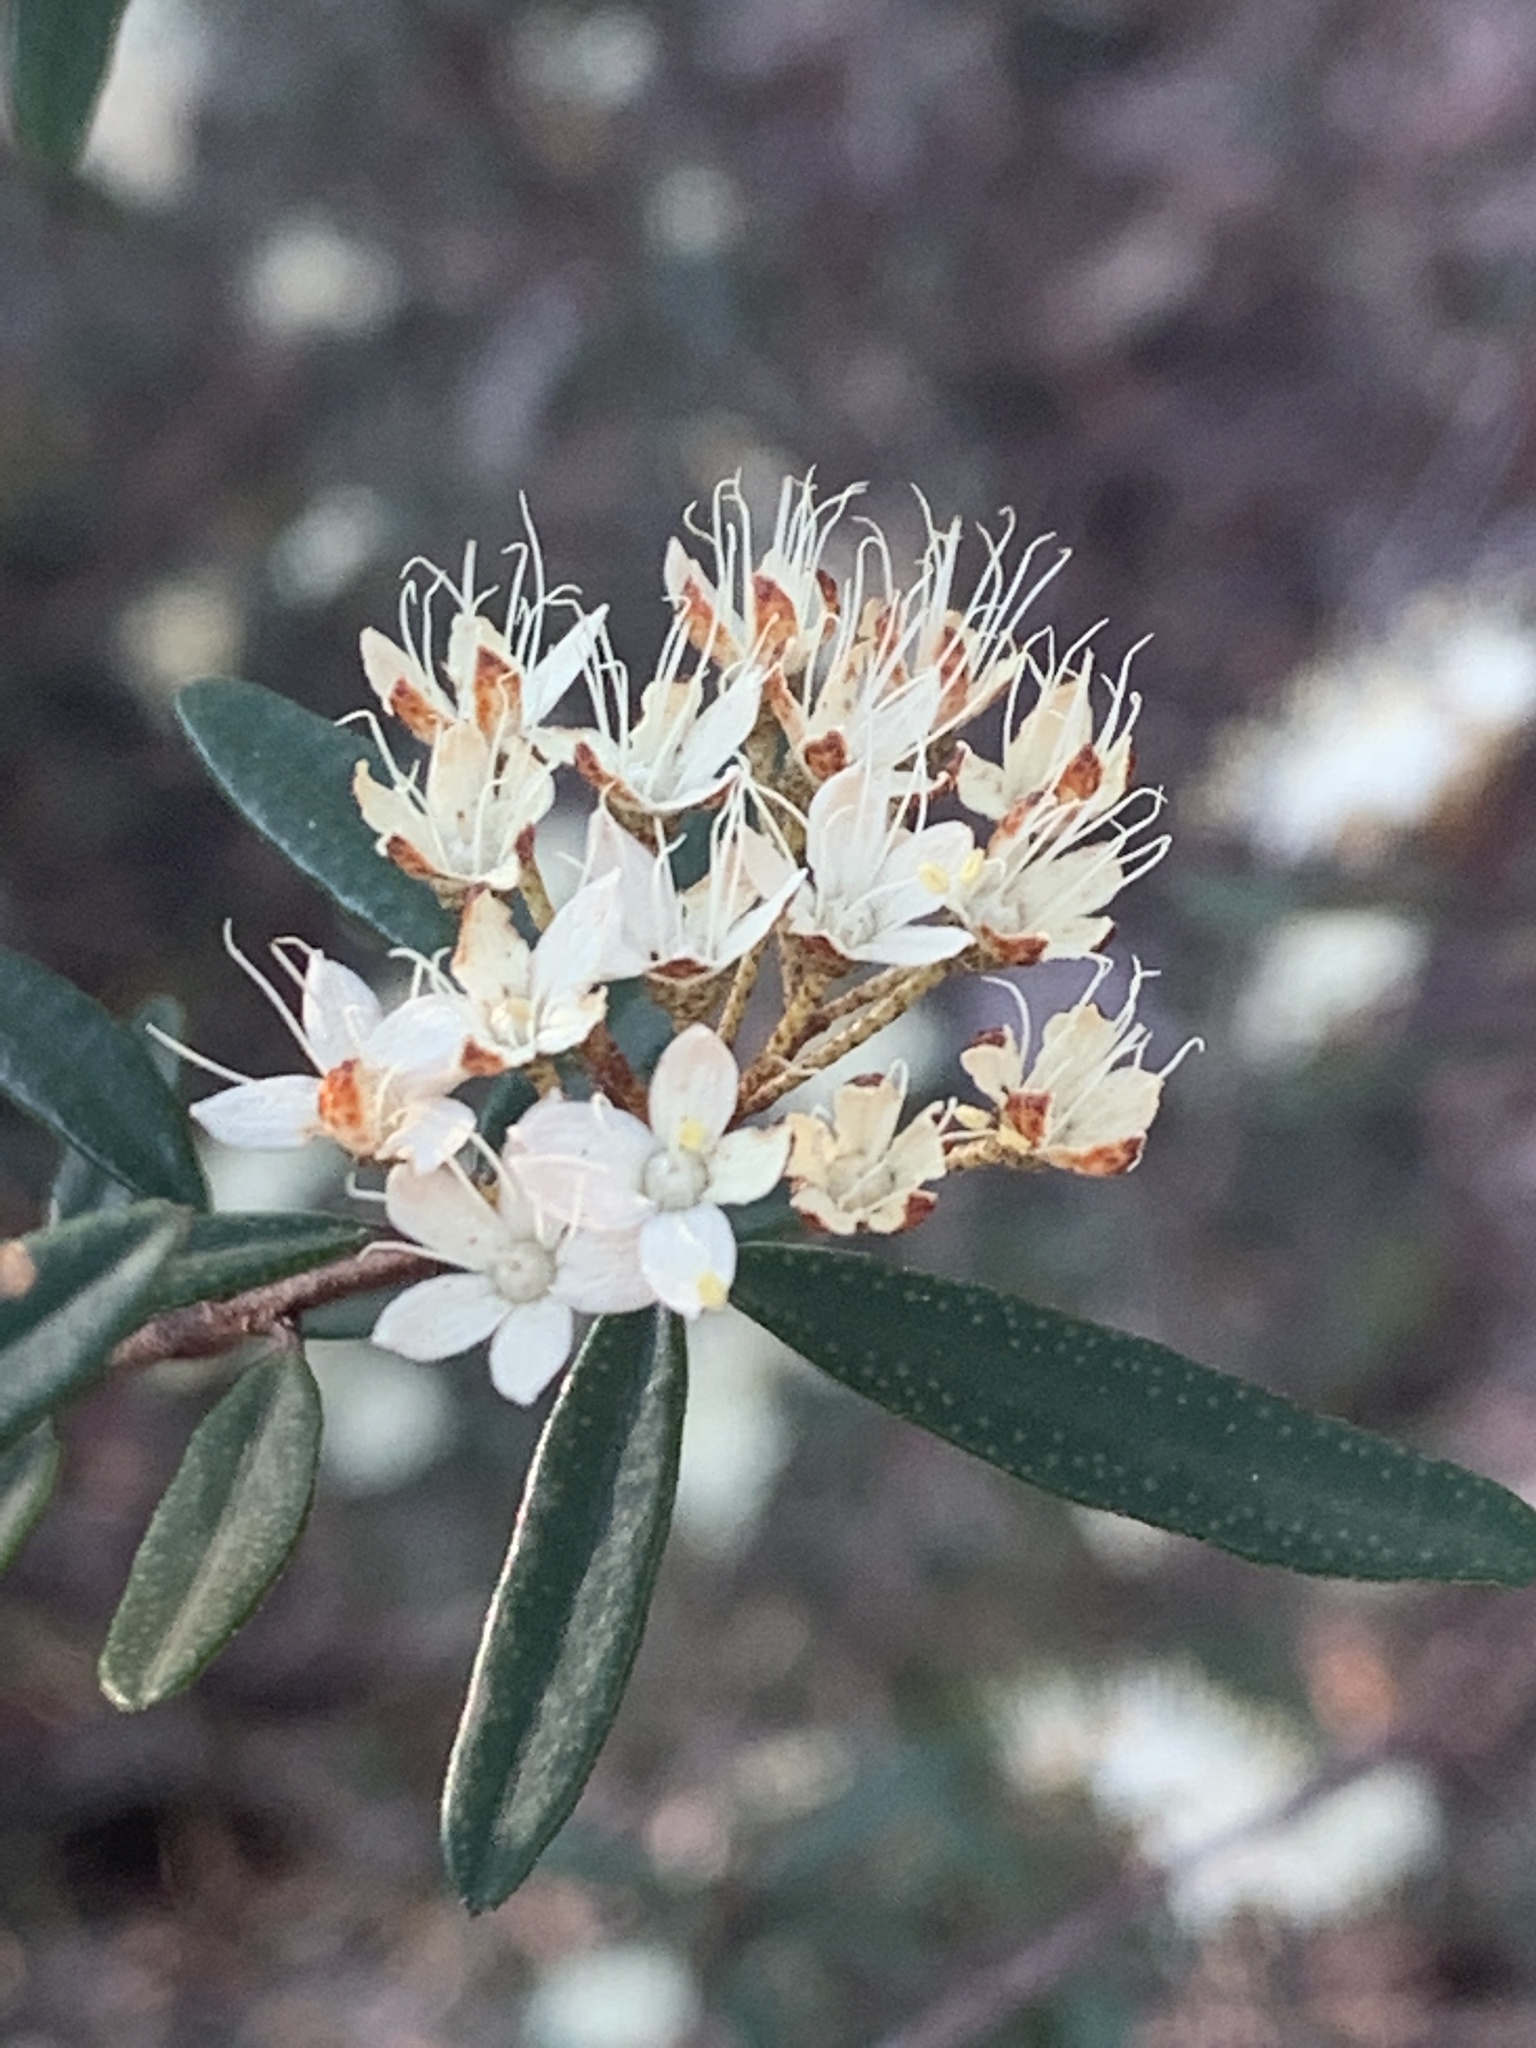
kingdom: Plantae
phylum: Tracheophyta
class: Magnoliopsida
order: Sapindales
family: Rutaceae
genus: Phebalium
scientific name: Phebalium squamulosum
